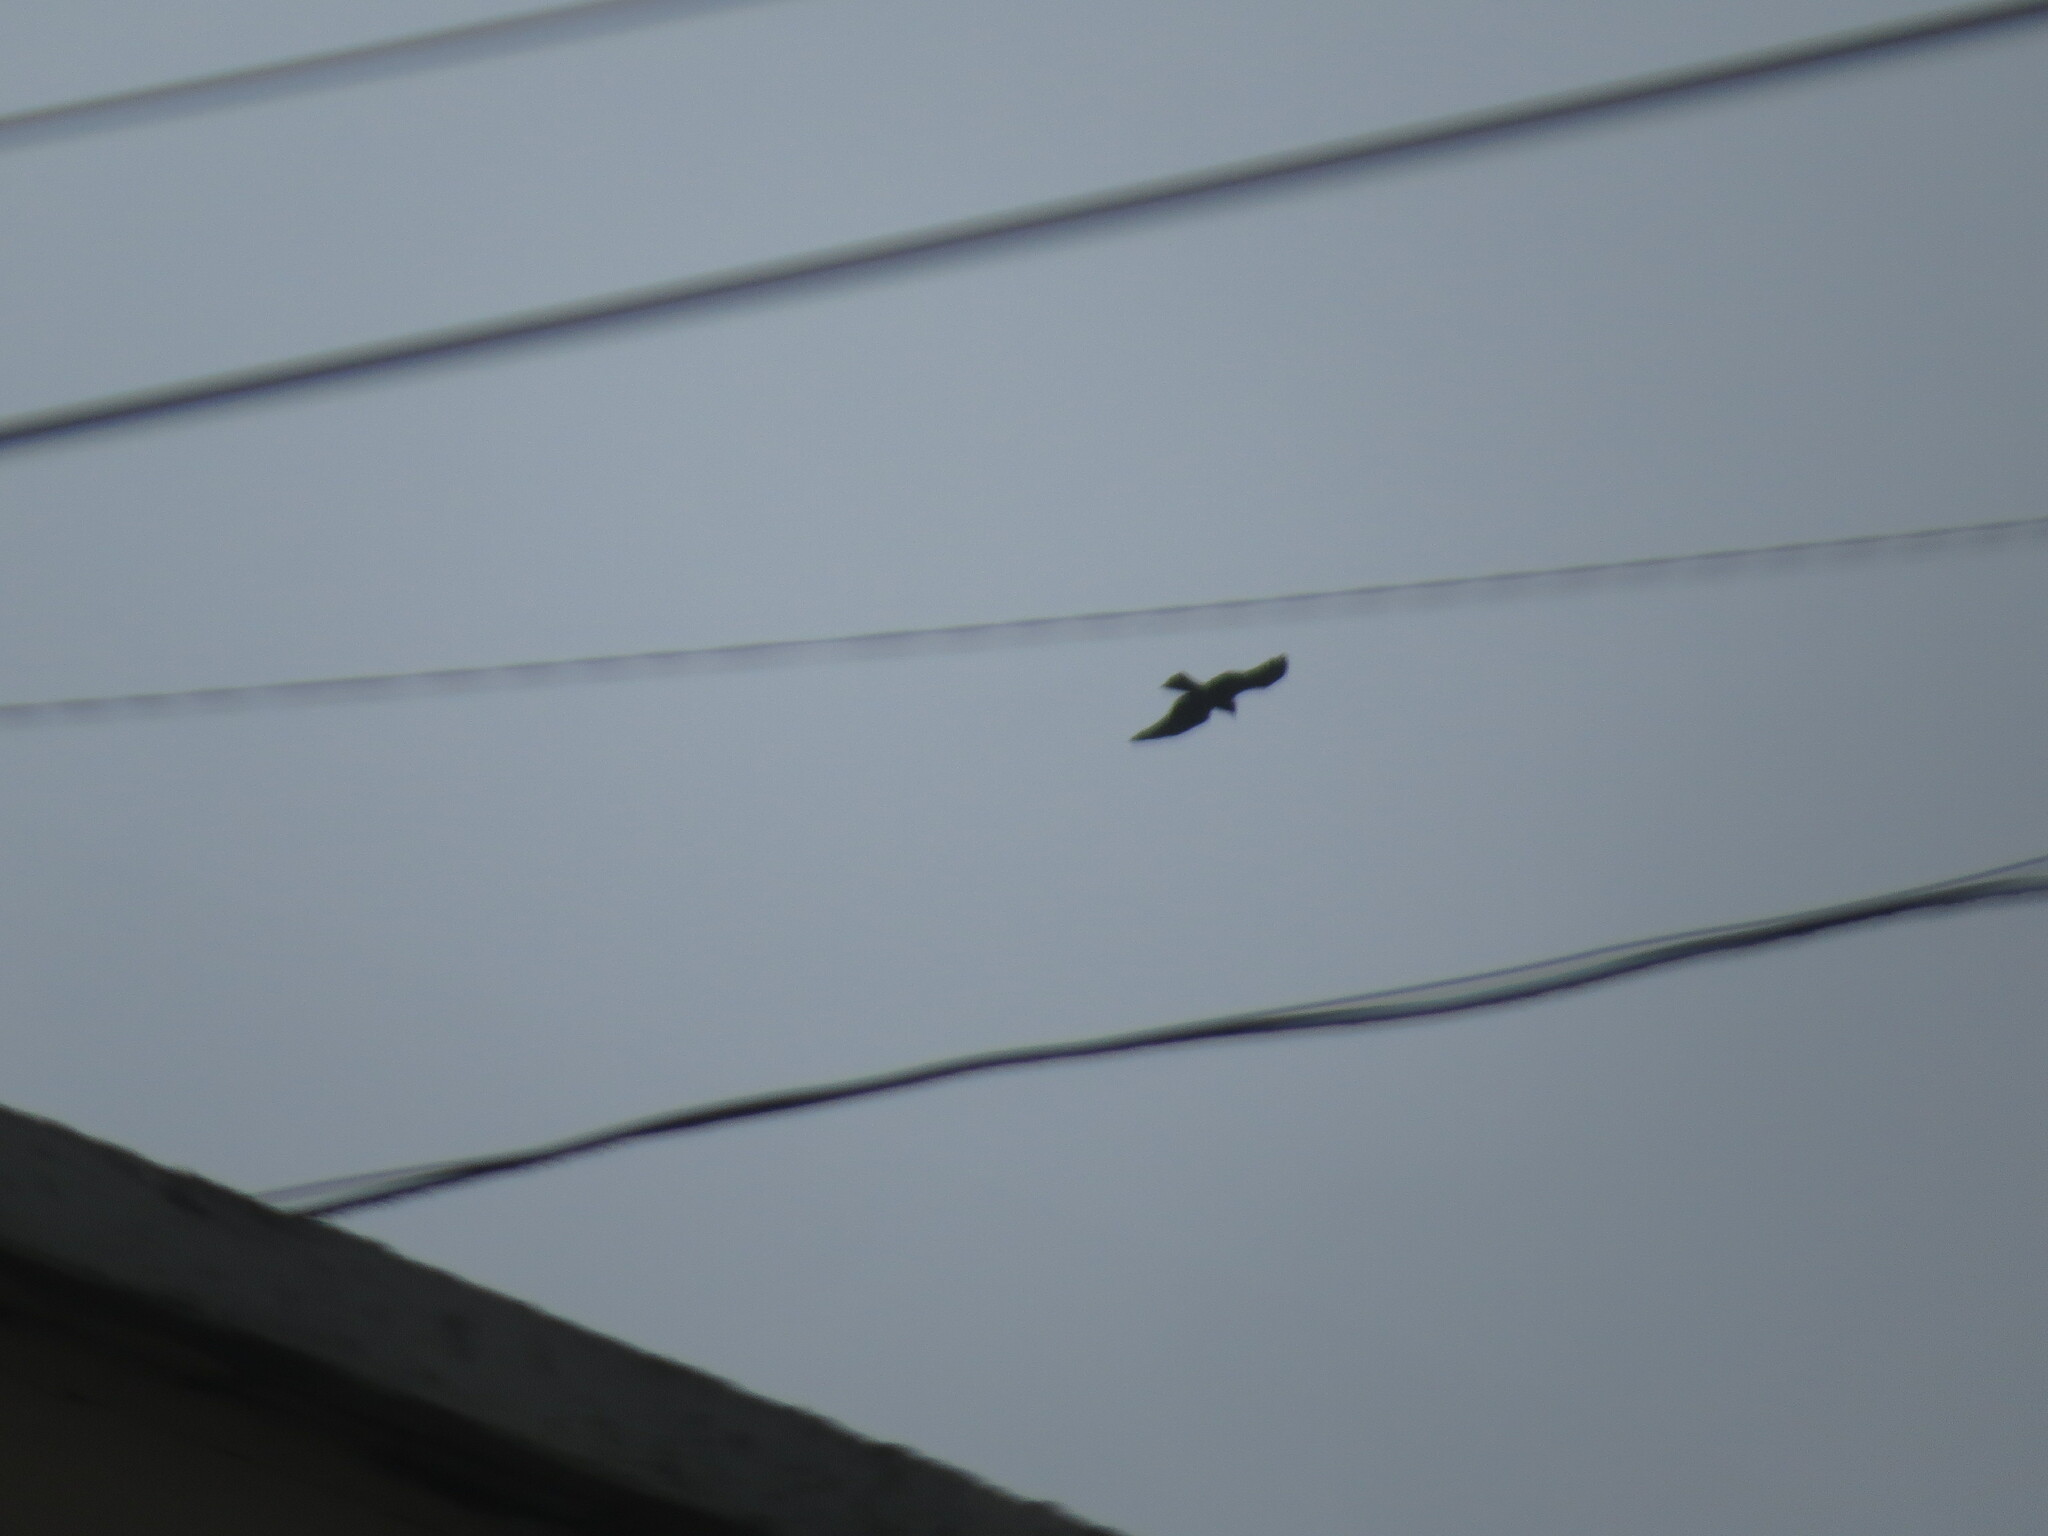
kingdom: Animalia
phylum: Chordata
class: Aves
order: Accipitriformes
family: Accipitridae
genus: Milvus
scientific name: Milvus migrans
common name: Black kite
